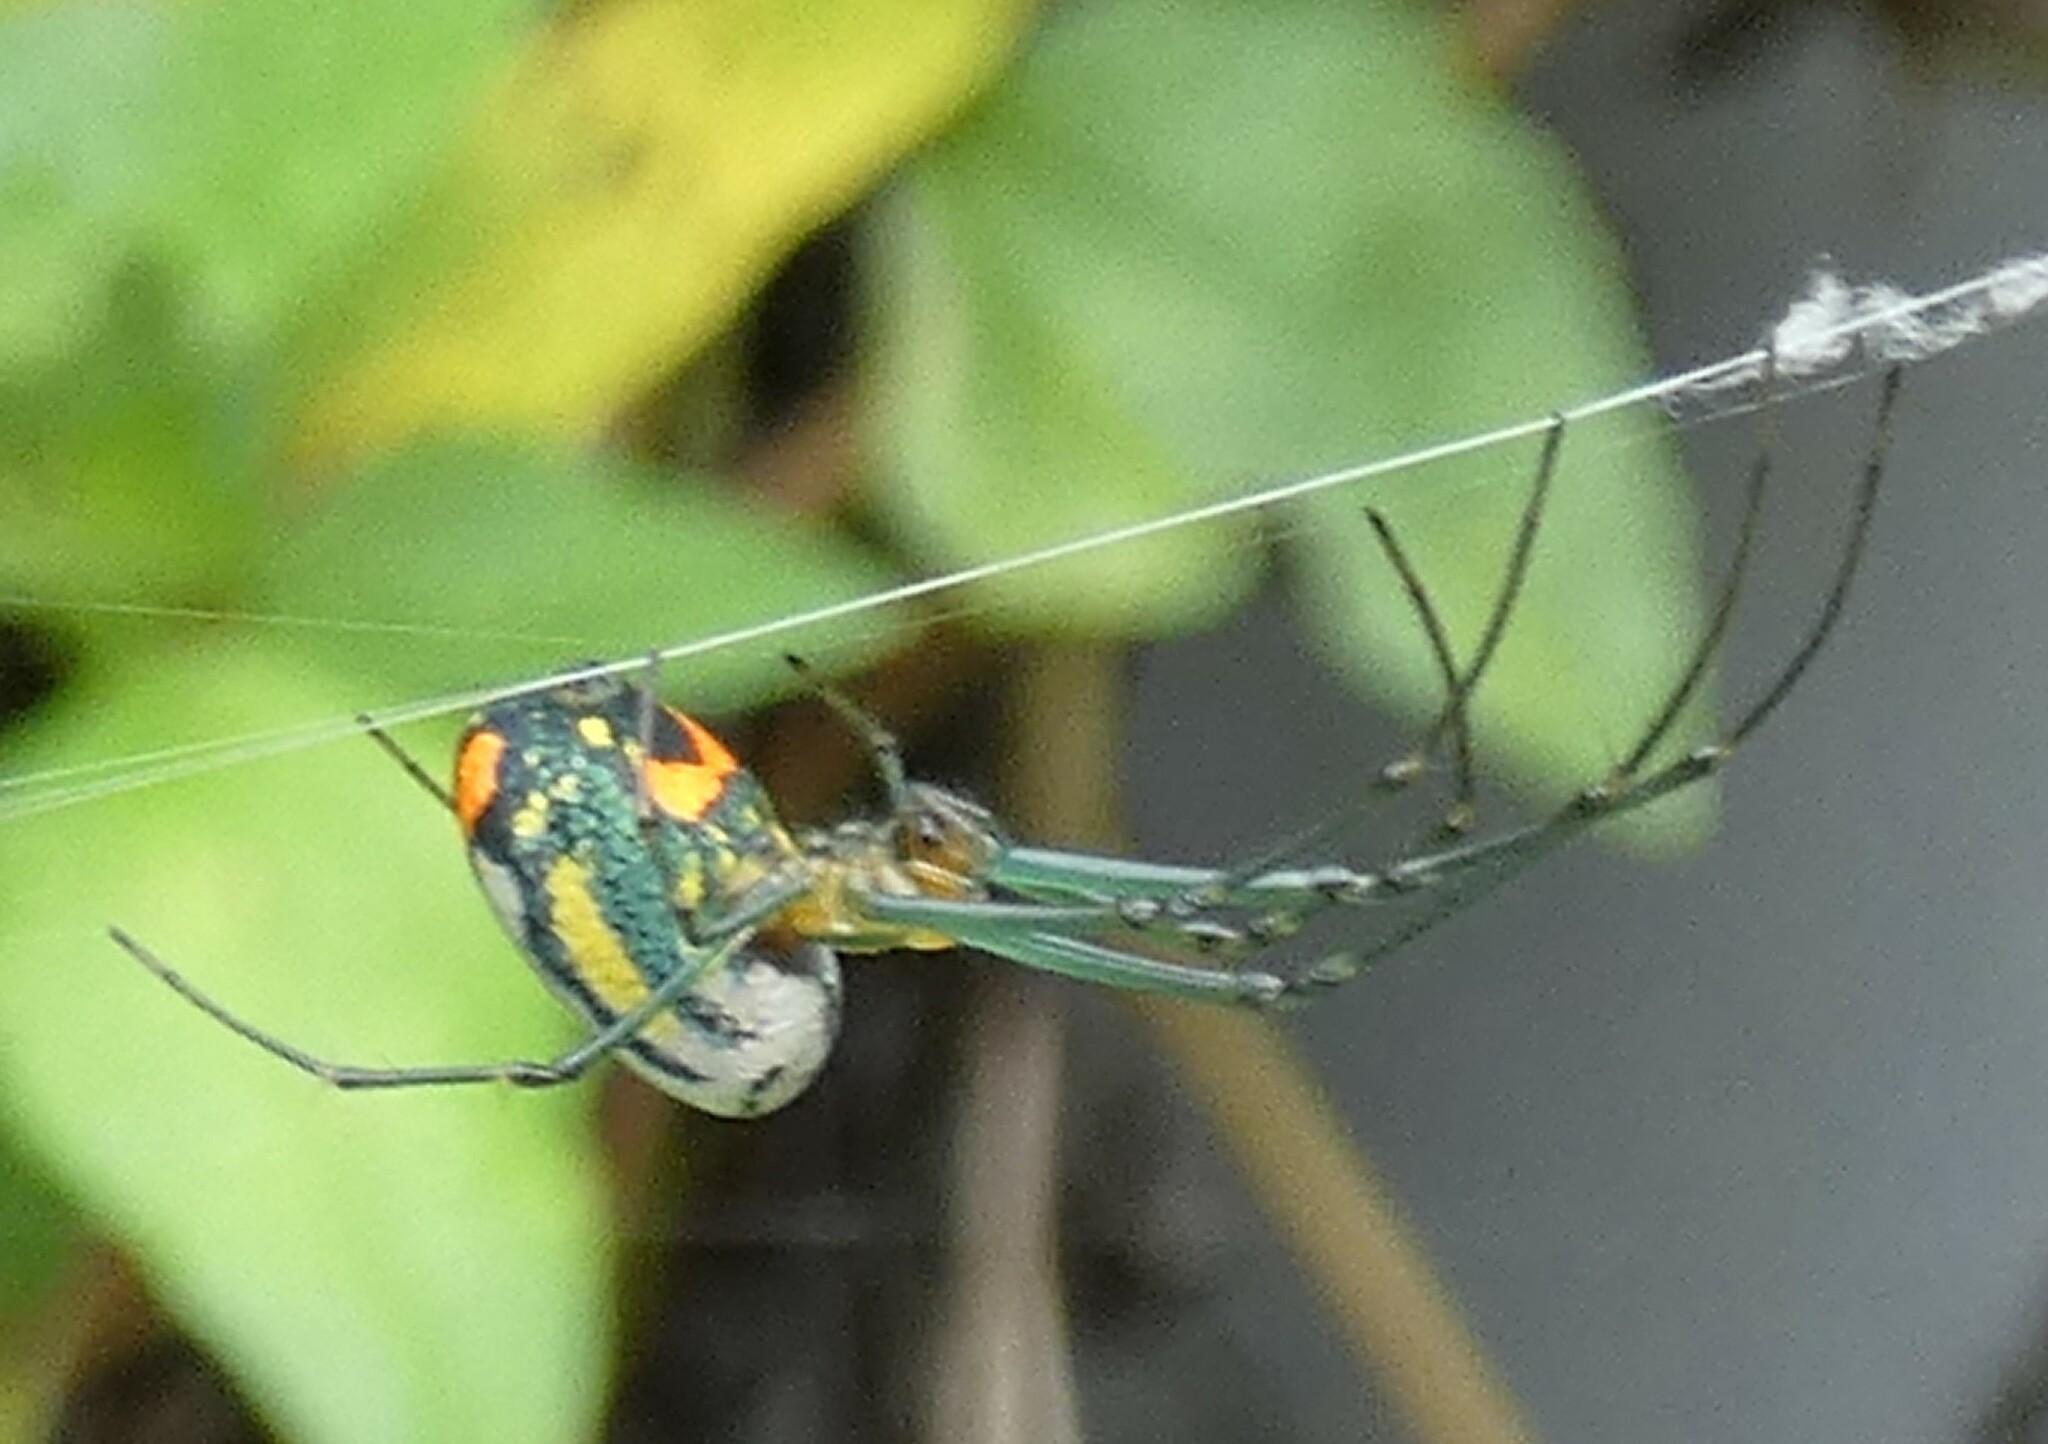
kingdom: Animalia
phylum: Arthropoda
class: Arachnida
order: Araneae
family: Tetragnathidae
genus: Leucauge
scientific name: Leucauge argyrobapta
